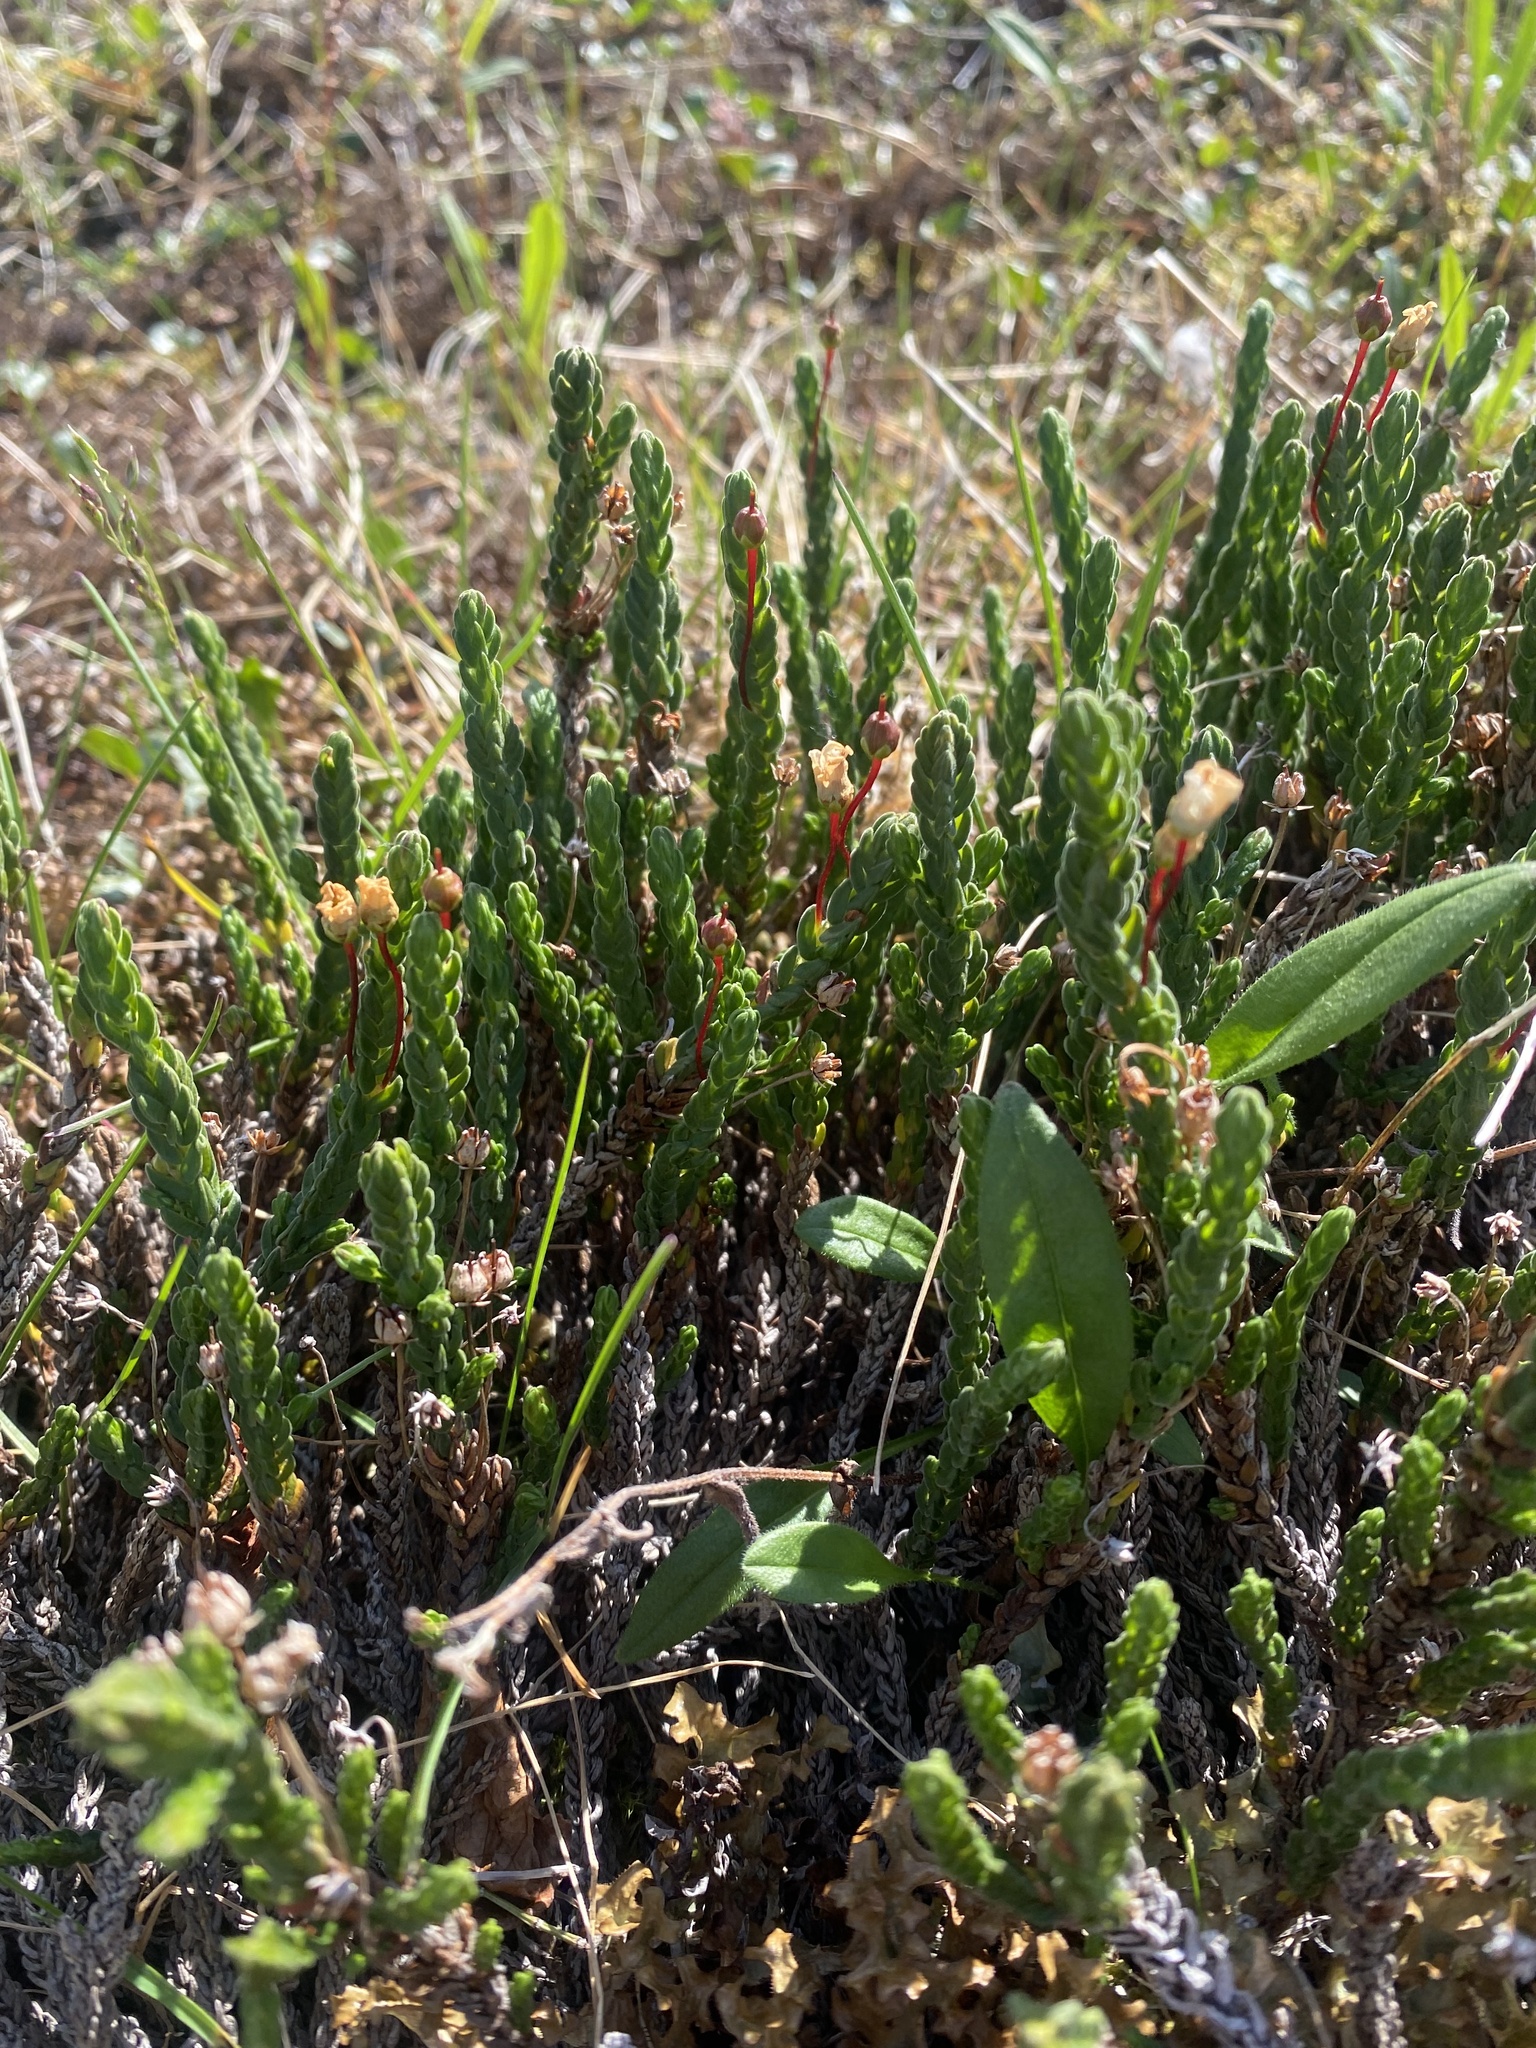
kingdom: Plantae
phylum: Tracheophyta
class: Magnoliopsida
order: Ericales
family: Ericaceae
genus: Cassiope
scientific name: Cassiope tetragona
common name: Arctic bell heather
